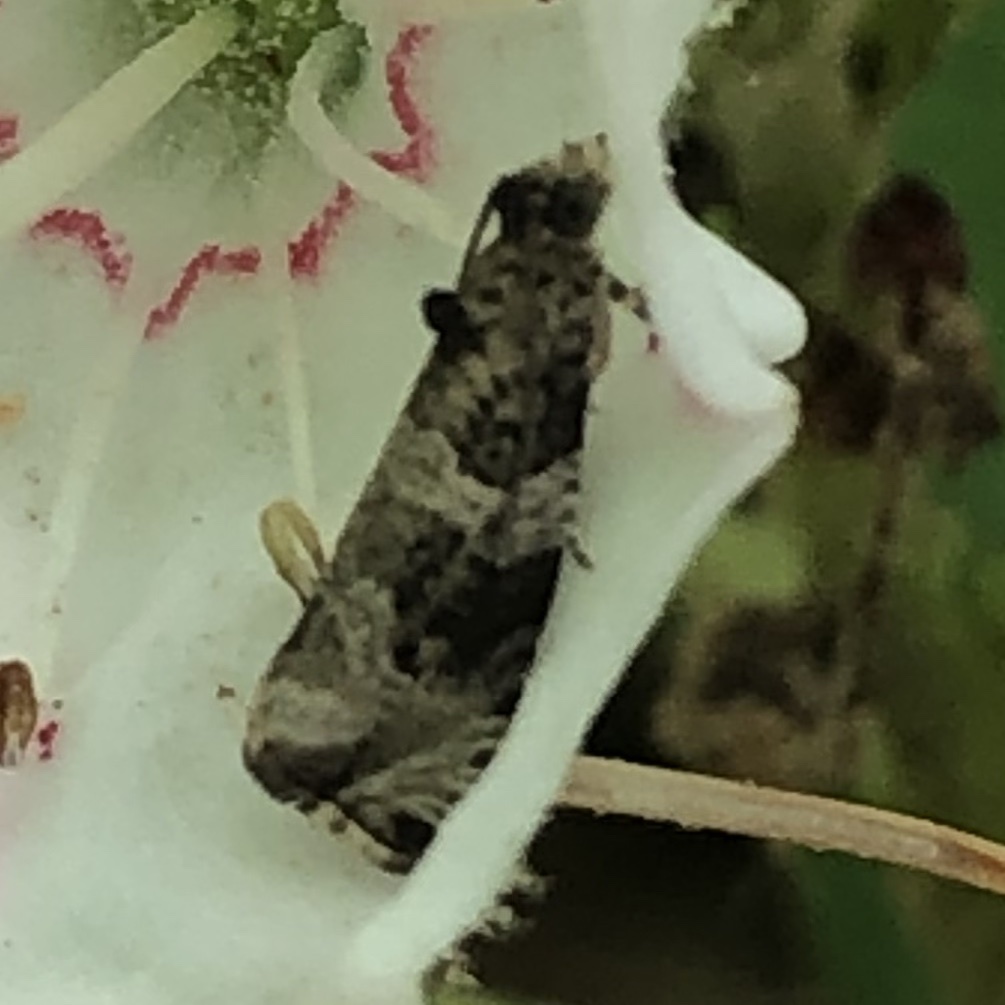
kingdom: Animalia
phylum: Arthropoda
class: Insecta
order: Lepidoptera
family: Tortricidae
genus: Olethreutes
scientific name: Olethreutes fasciatana
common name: Banded olethreutes moth
